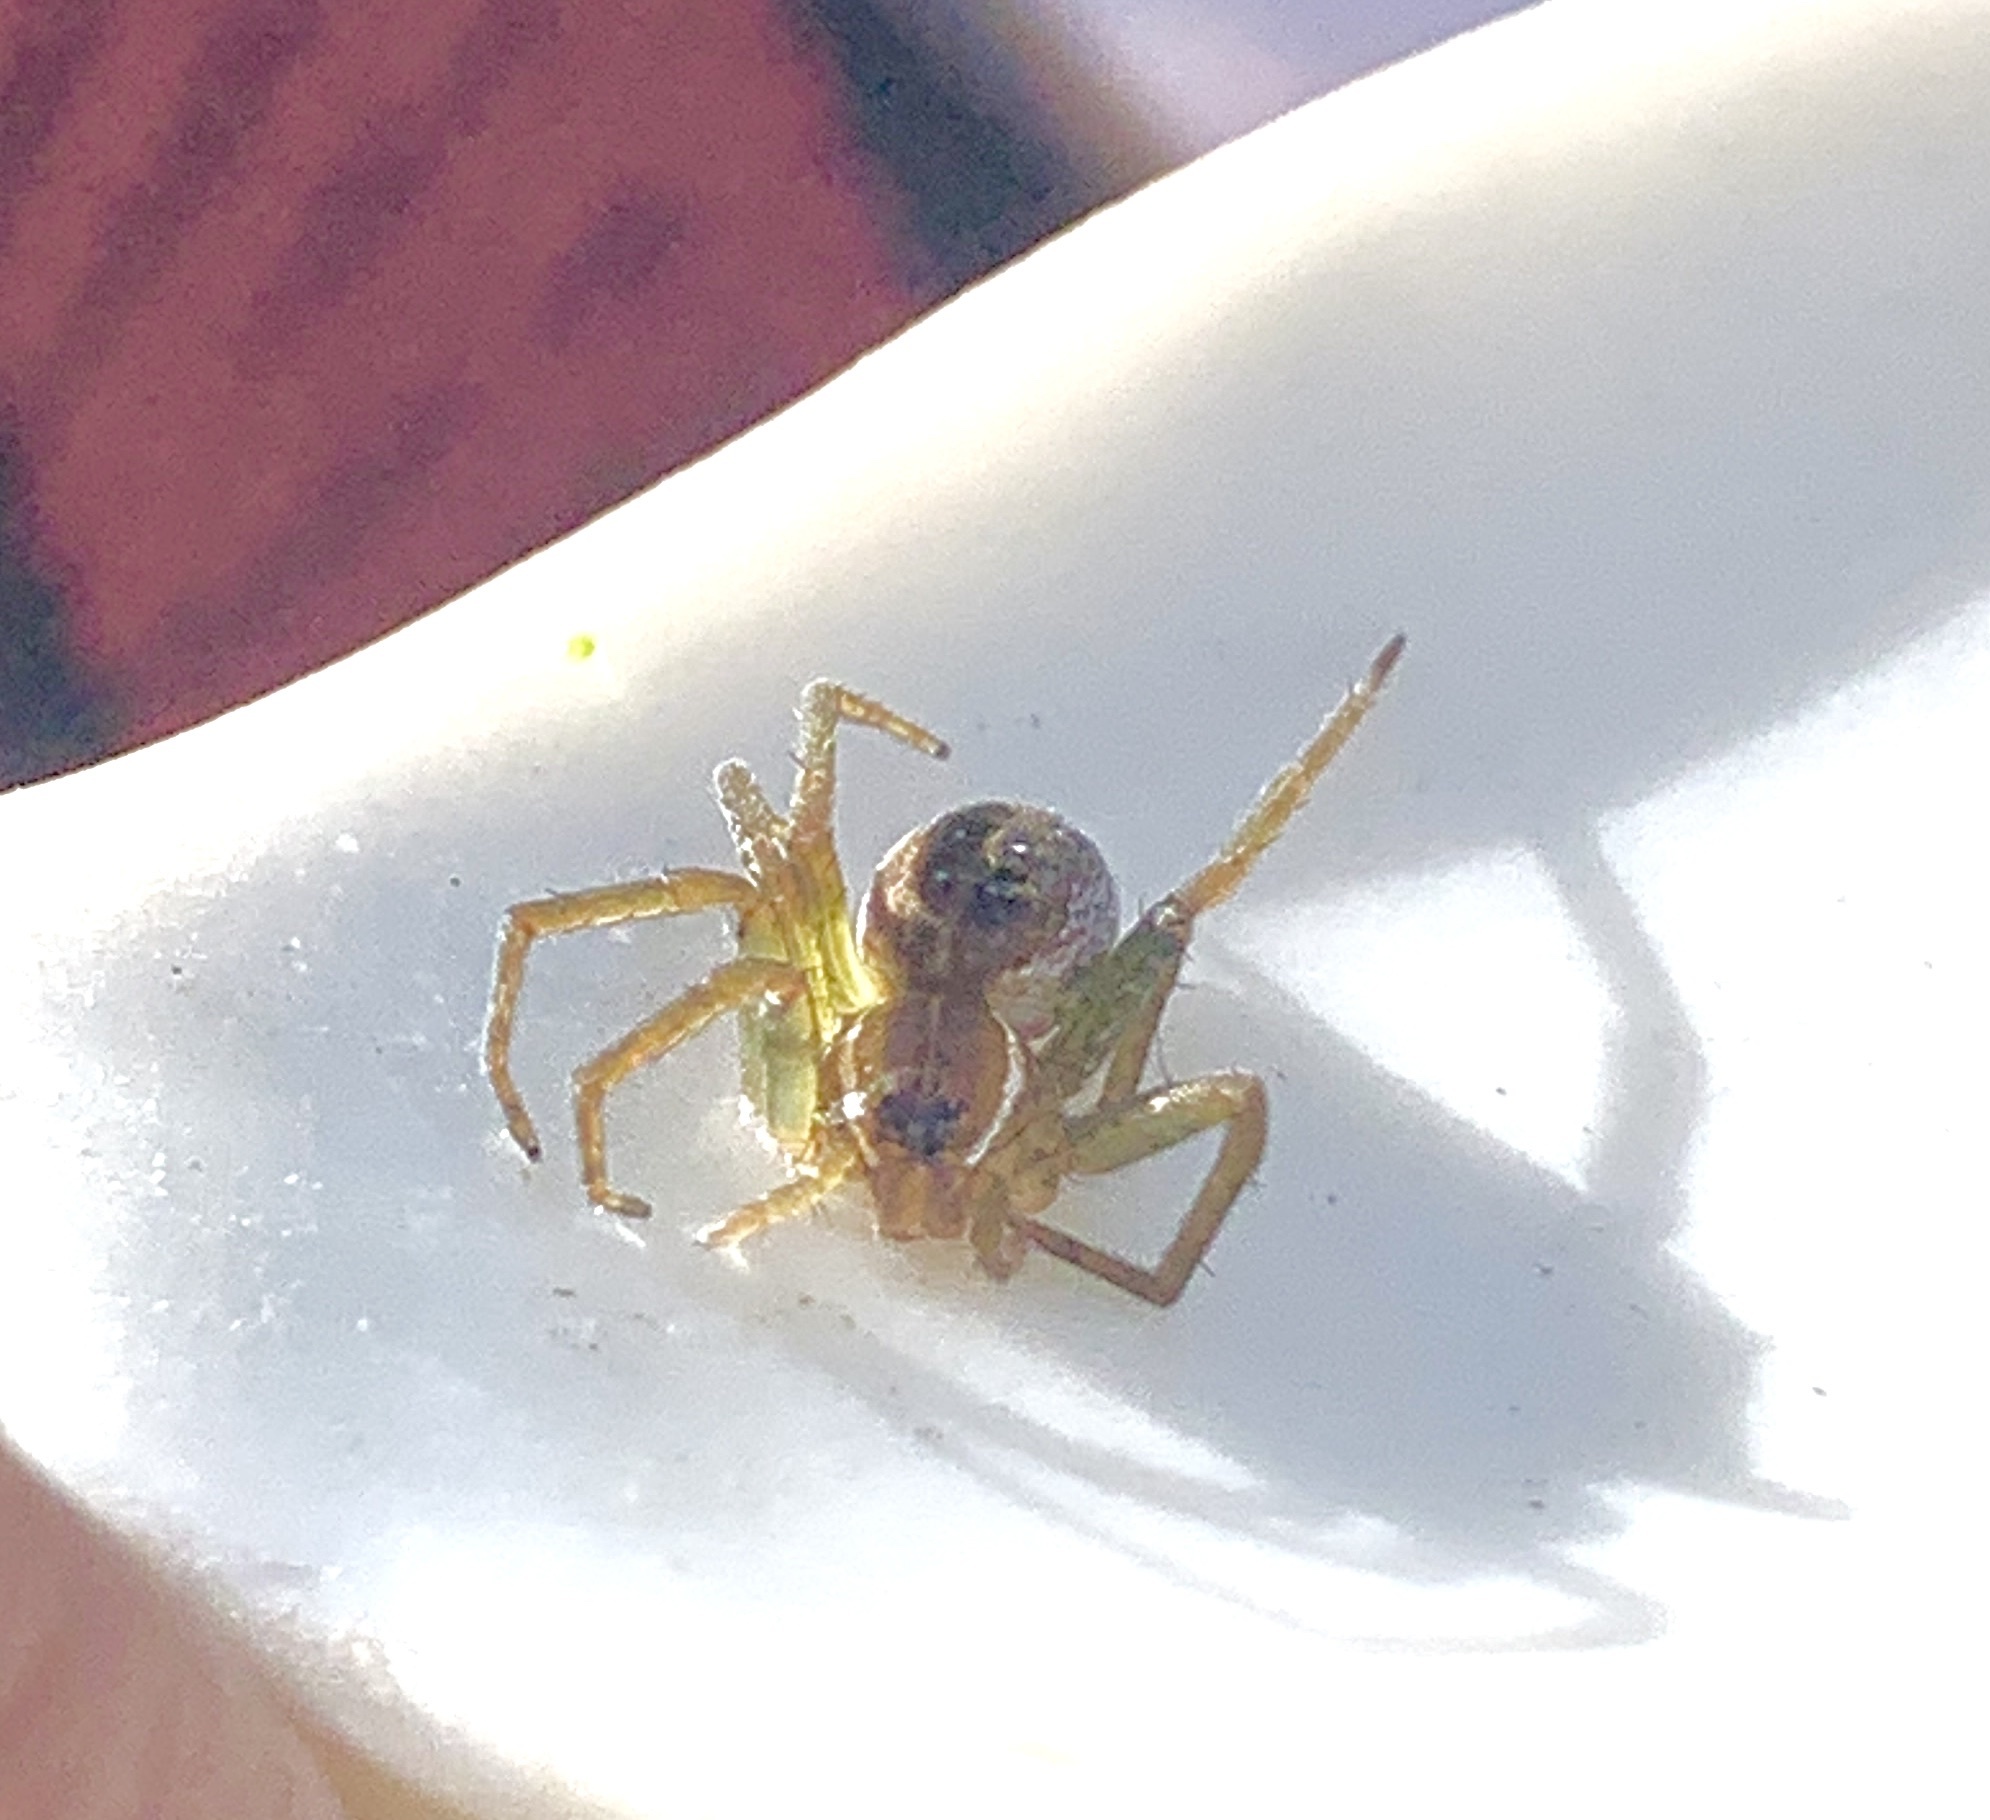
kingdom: Animalia
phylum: Arthropoda
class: Arachnida
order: Araneae
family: Pisauridae
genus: Dolomedes
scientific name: Dolomedes triton
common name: Six-spotted fishing spider
